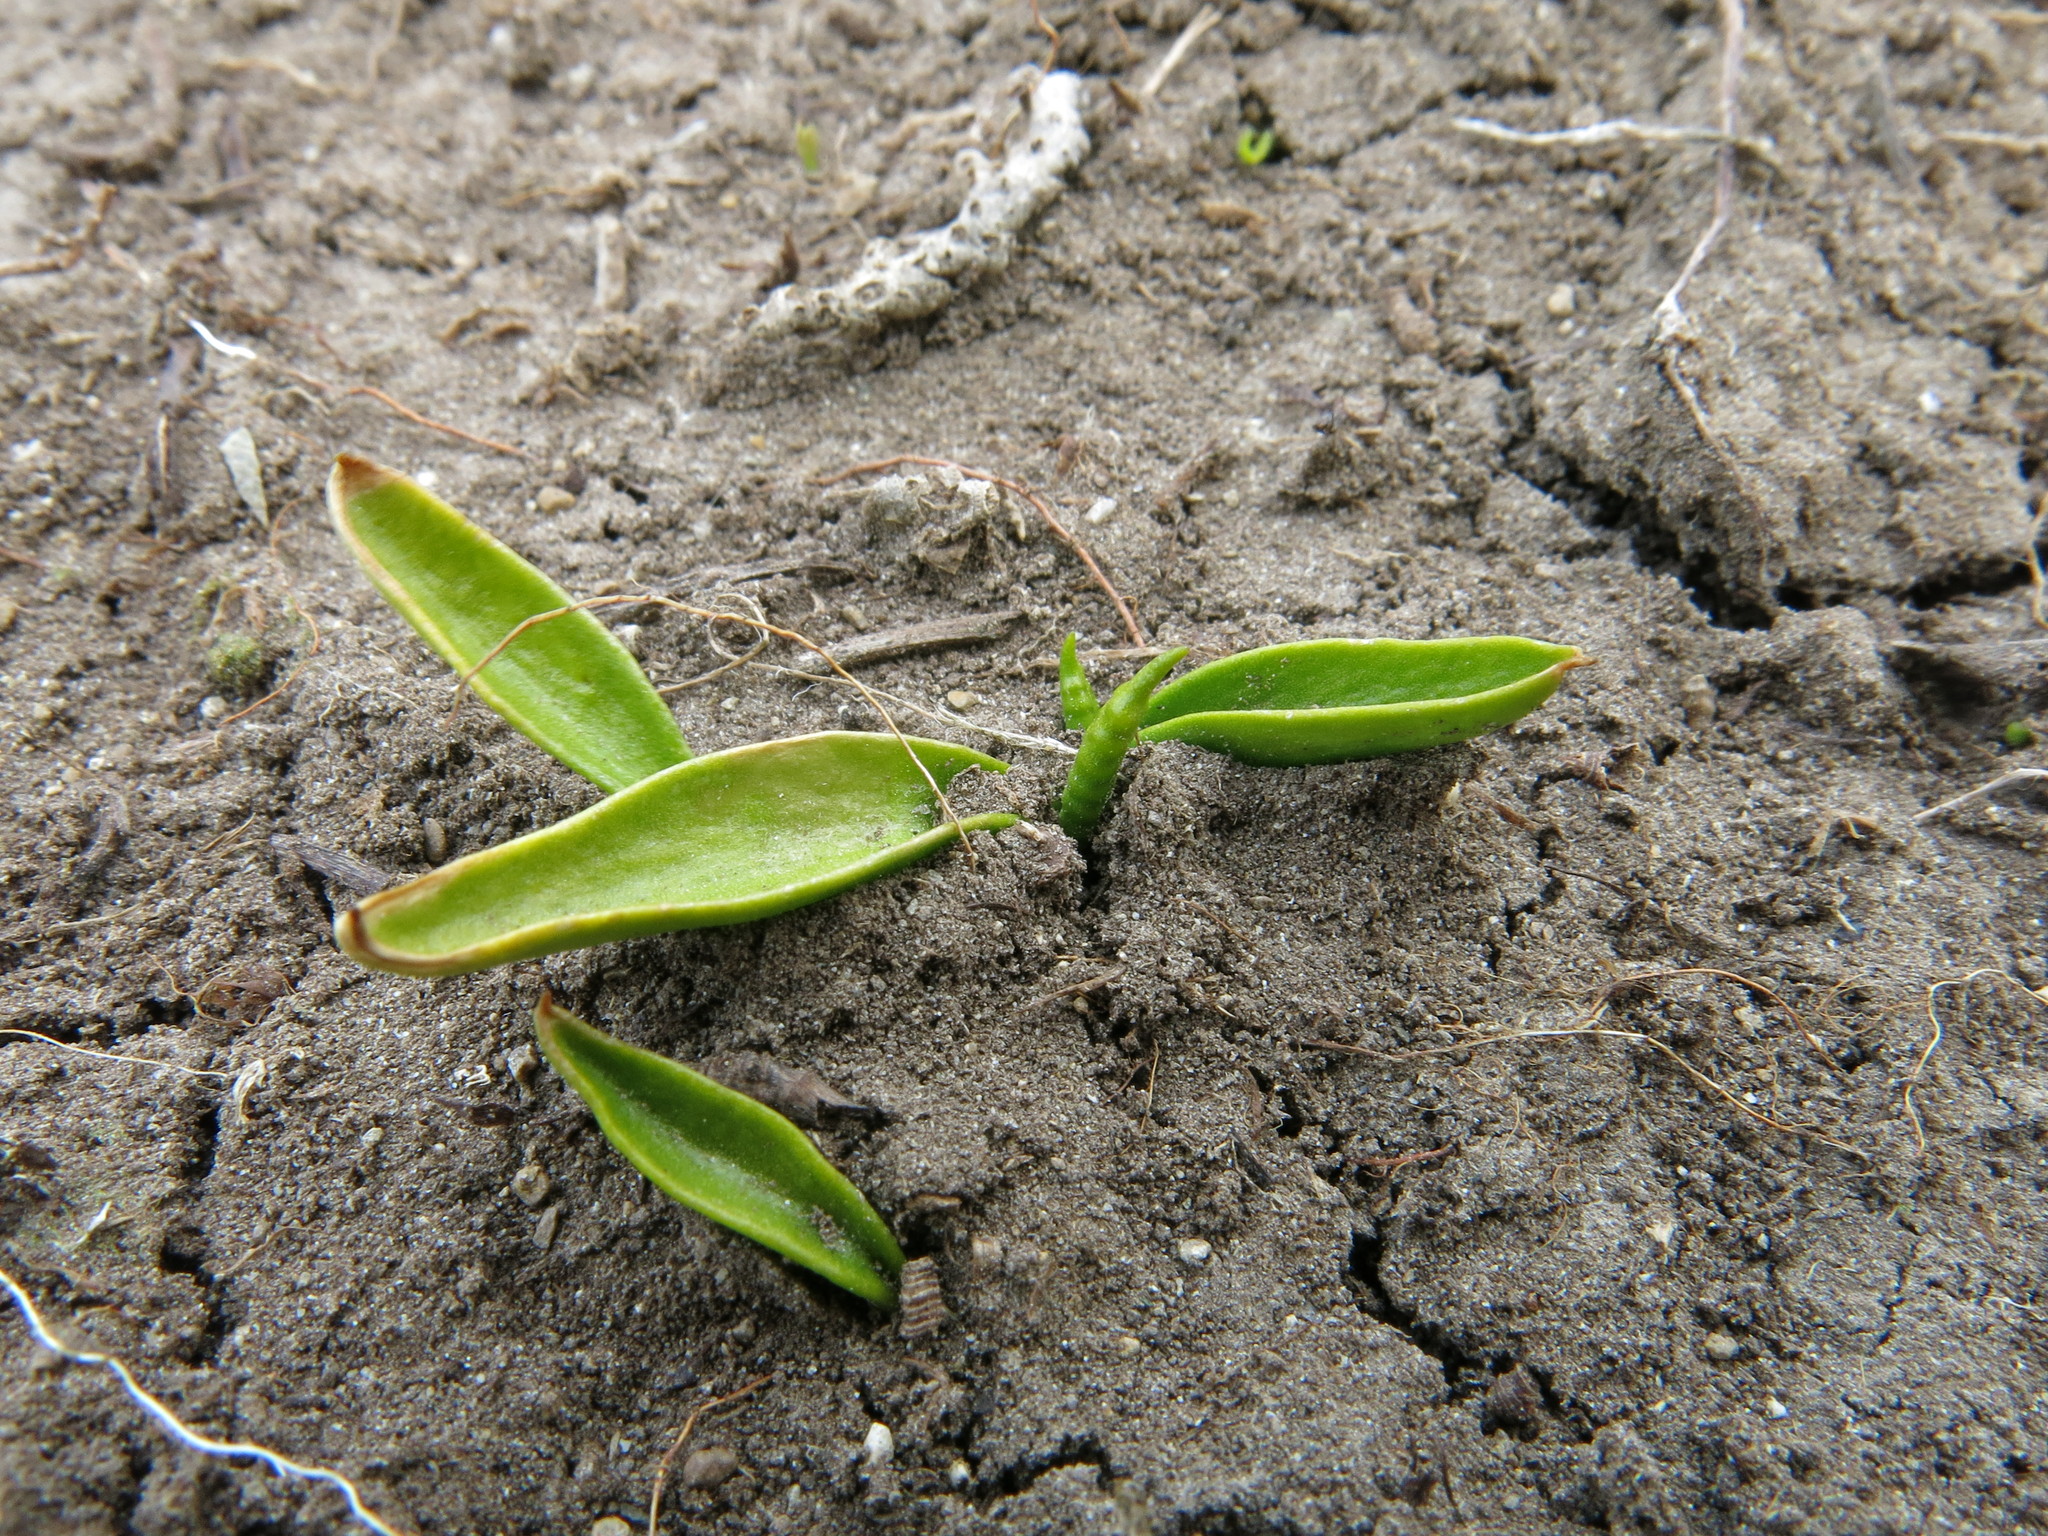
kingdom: Plantae
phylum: Tracheophyta
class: Polypodiopsida
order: Ophioglossales
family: Ophioglossaceae
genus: Ophioglossum
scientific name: Ophioglossum coriaceum
